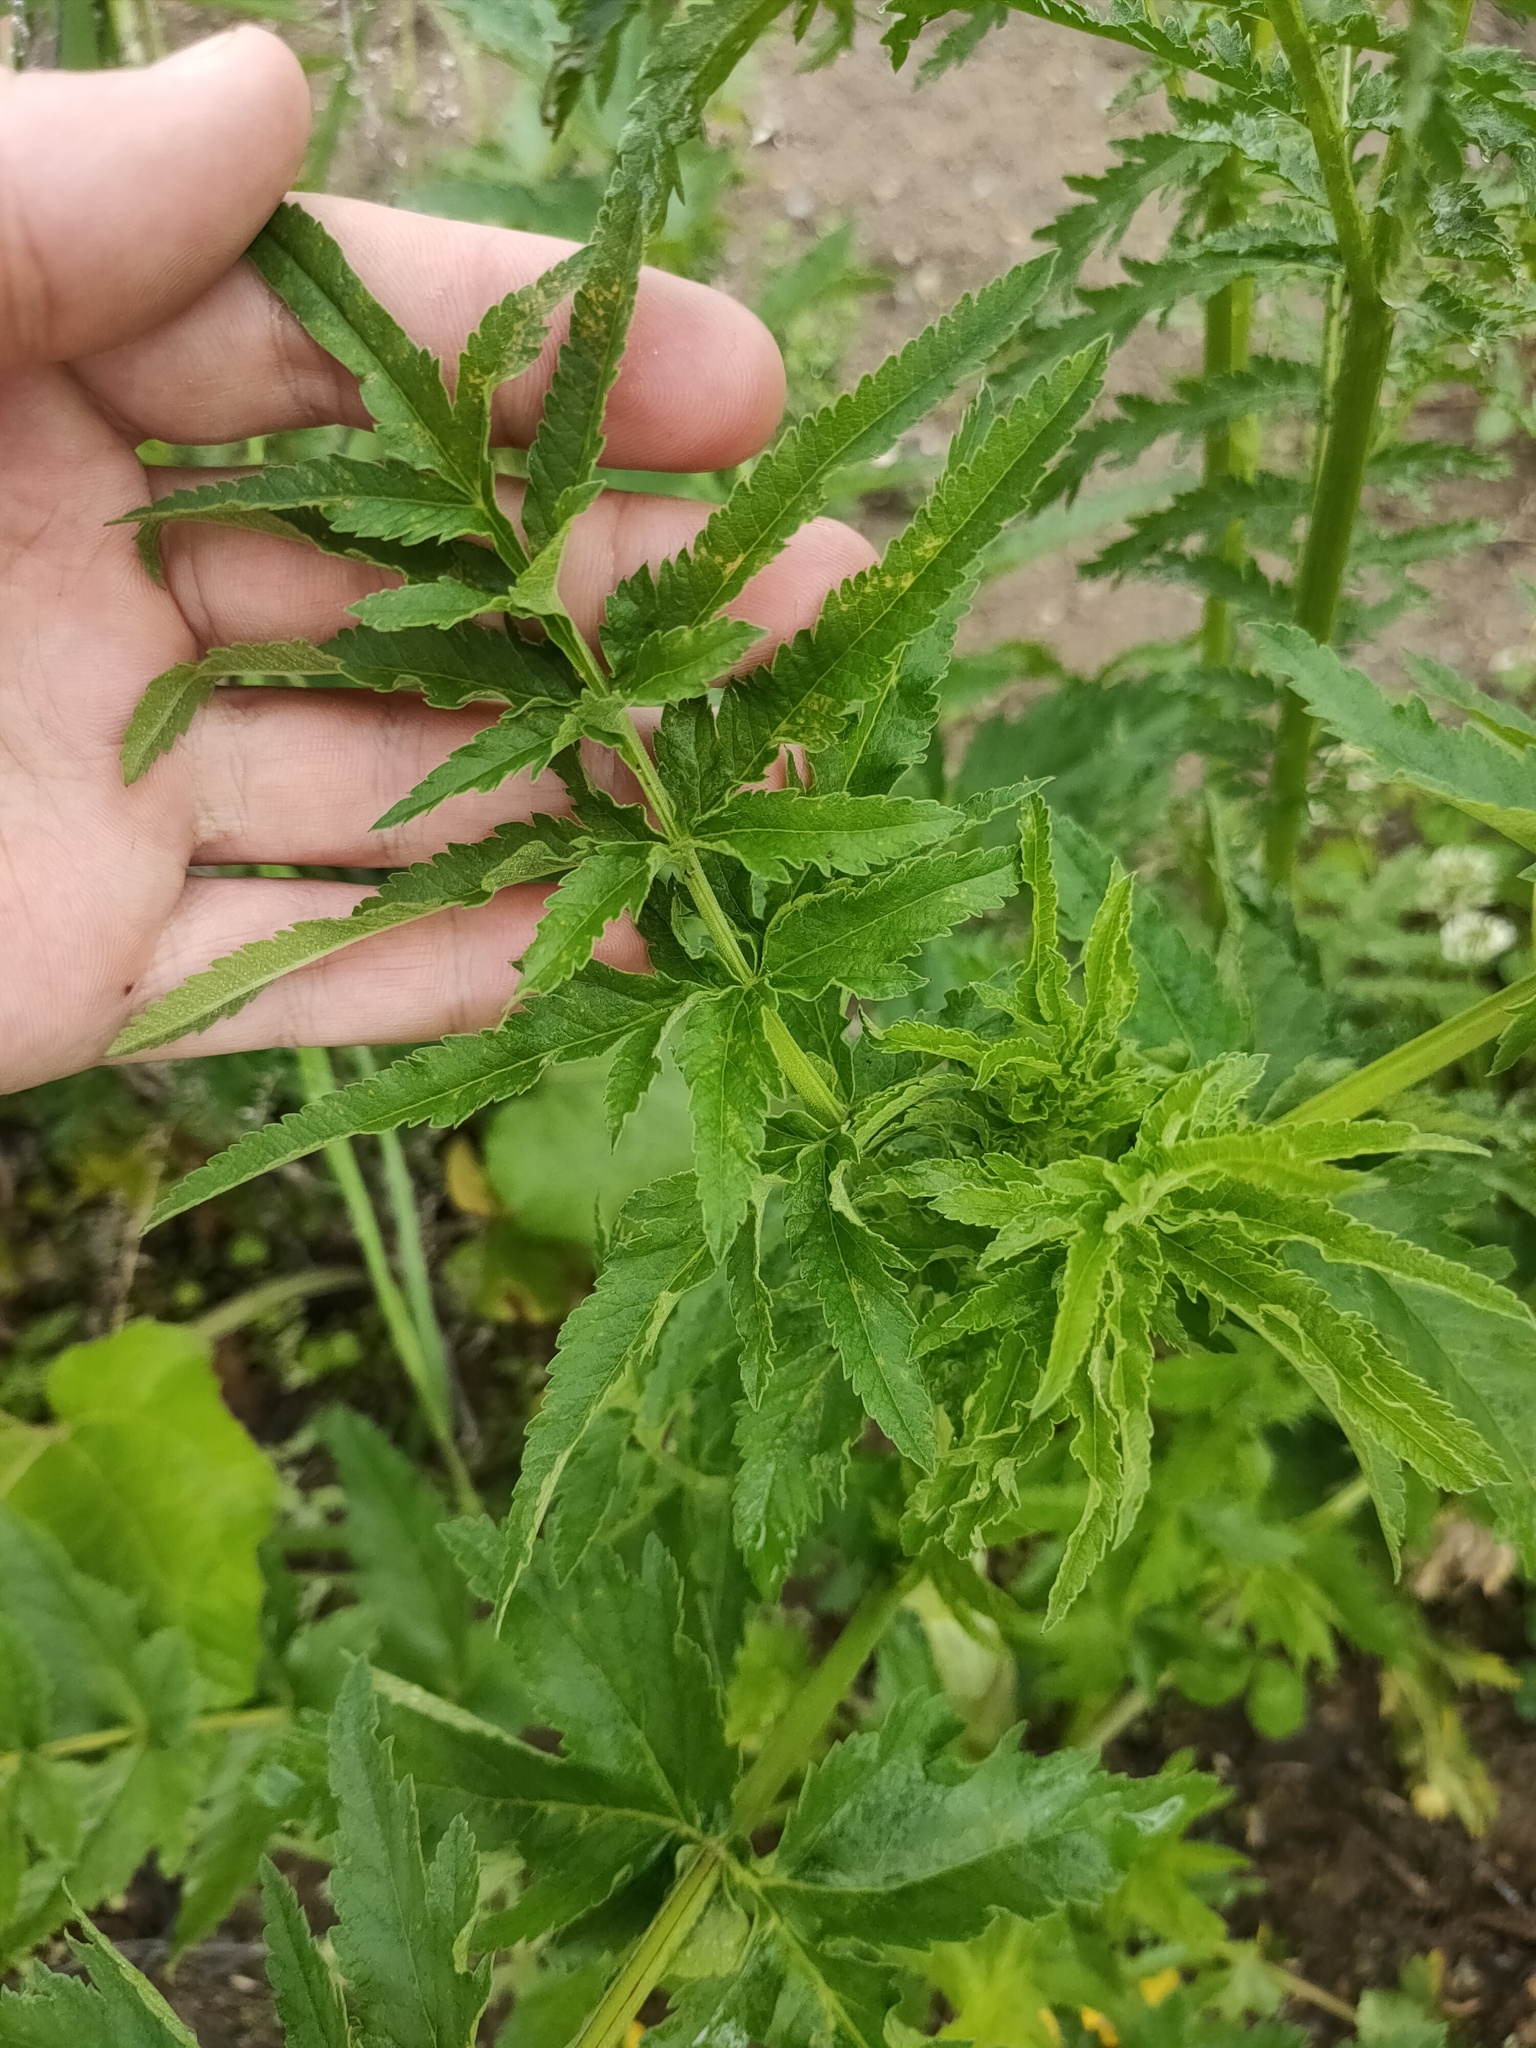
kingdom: Plantae
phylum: Tracheophyta
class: Magnoliopsida
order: Apiales
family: Apiaceae
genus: Pastinaca
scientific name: Pastinaca sativa
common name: Wild parsnip
